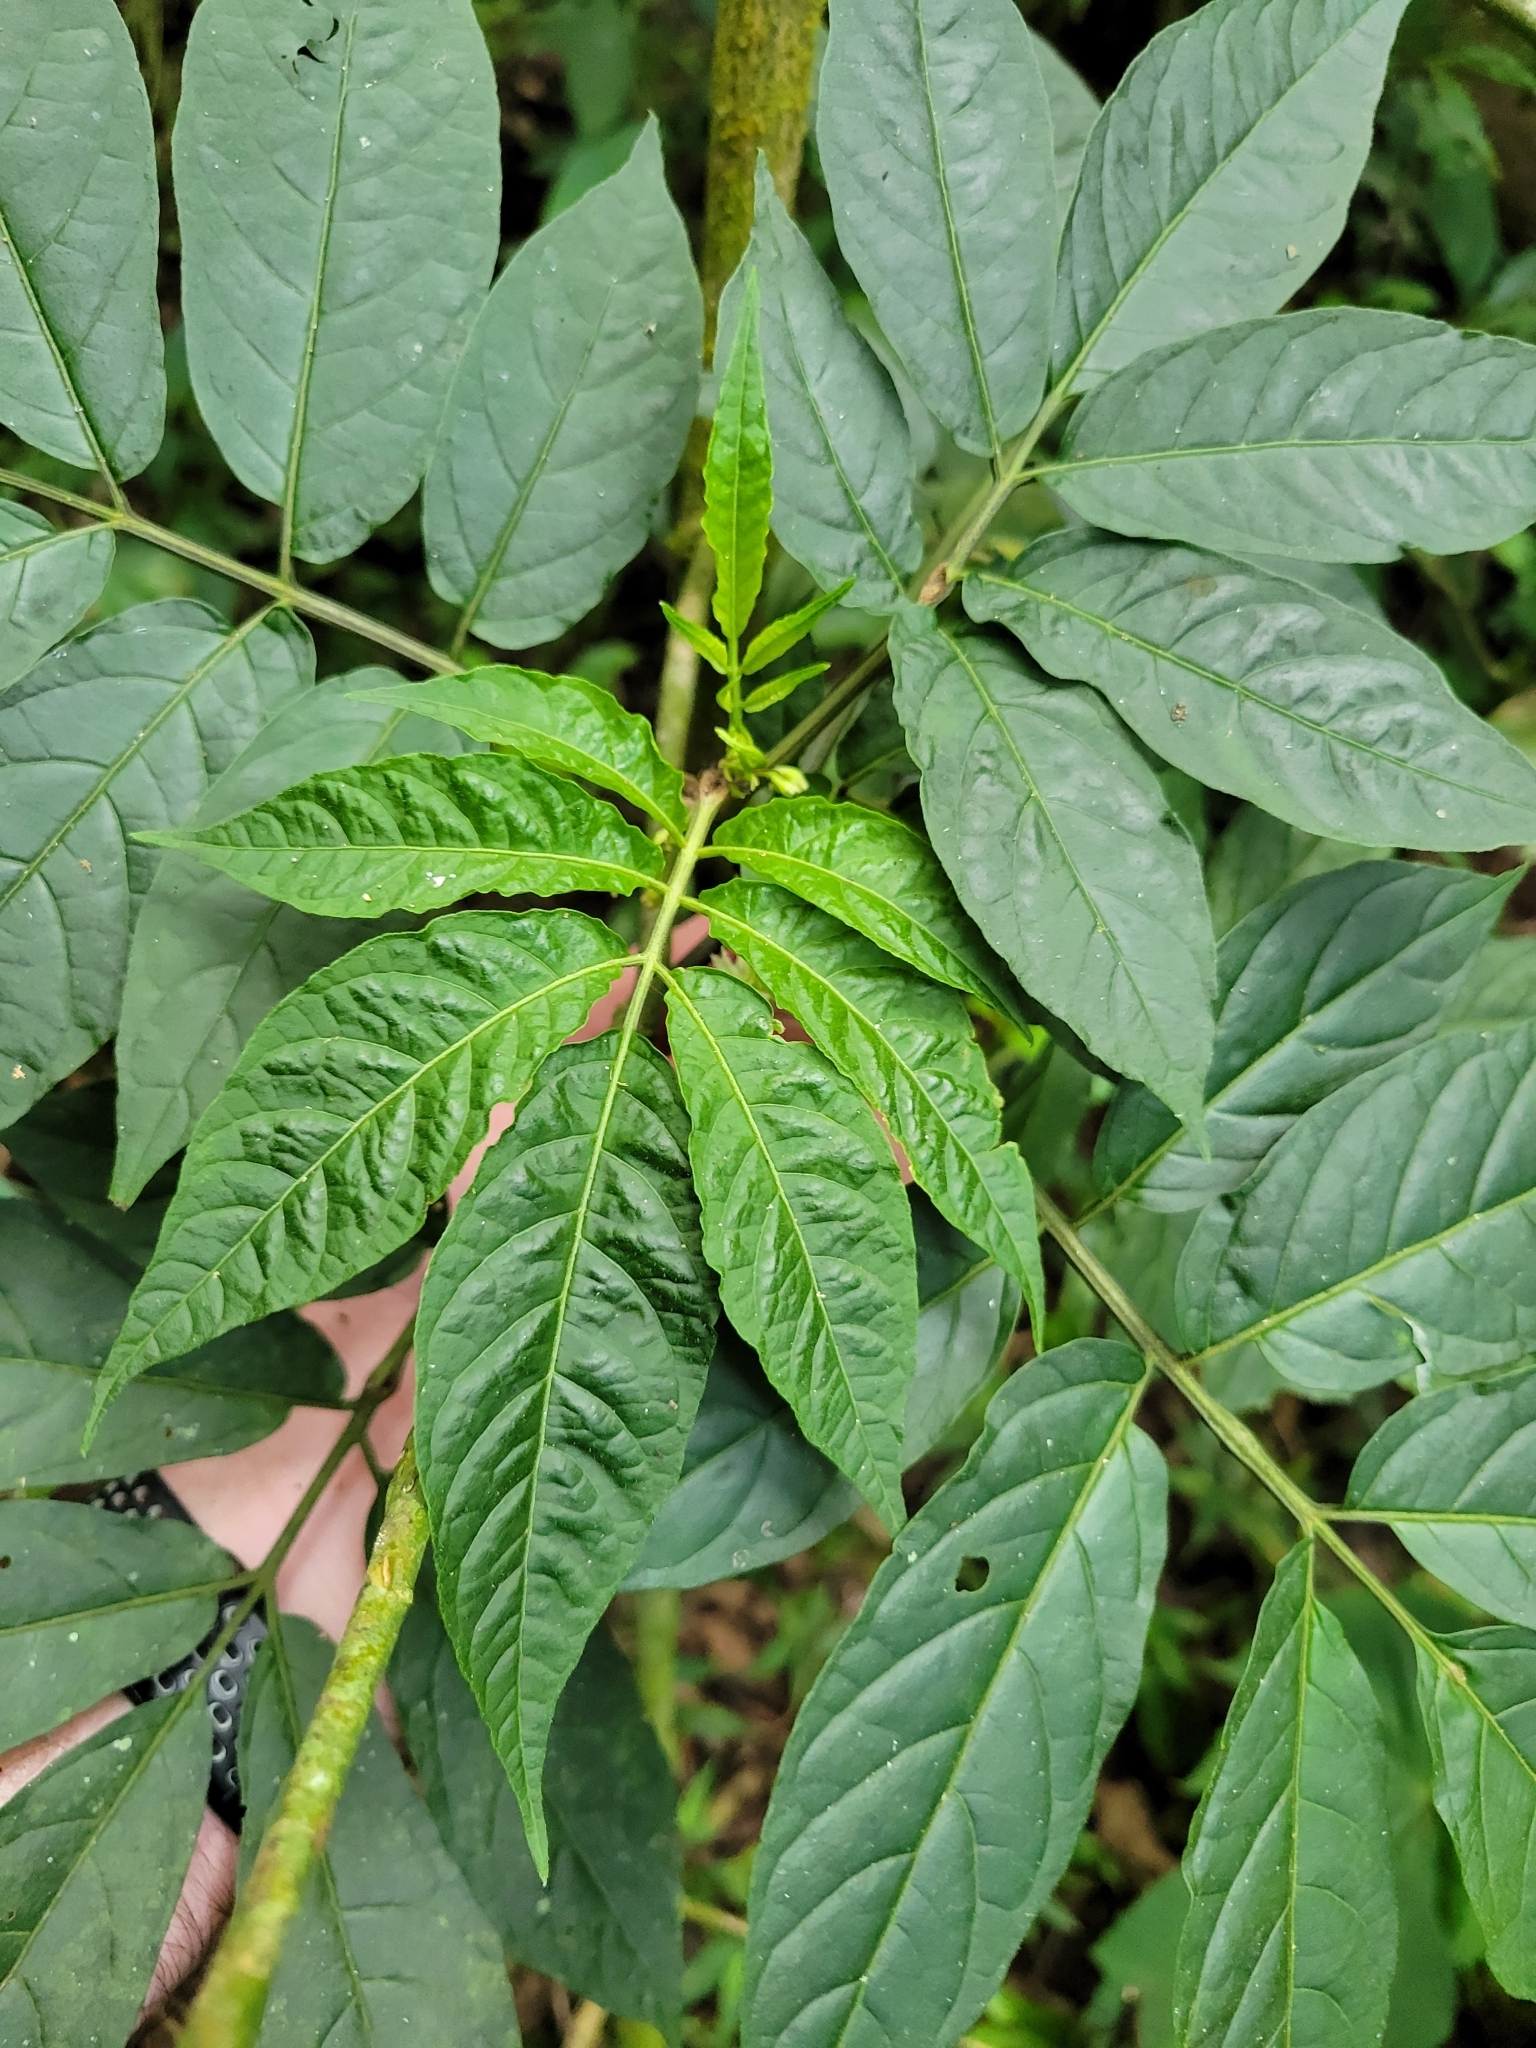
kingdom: Plantae
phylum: Tracheophyta
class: Magnoliopsida
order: Solanales
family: Solanaceae
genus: Solanum
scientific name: Solanum trizygum
